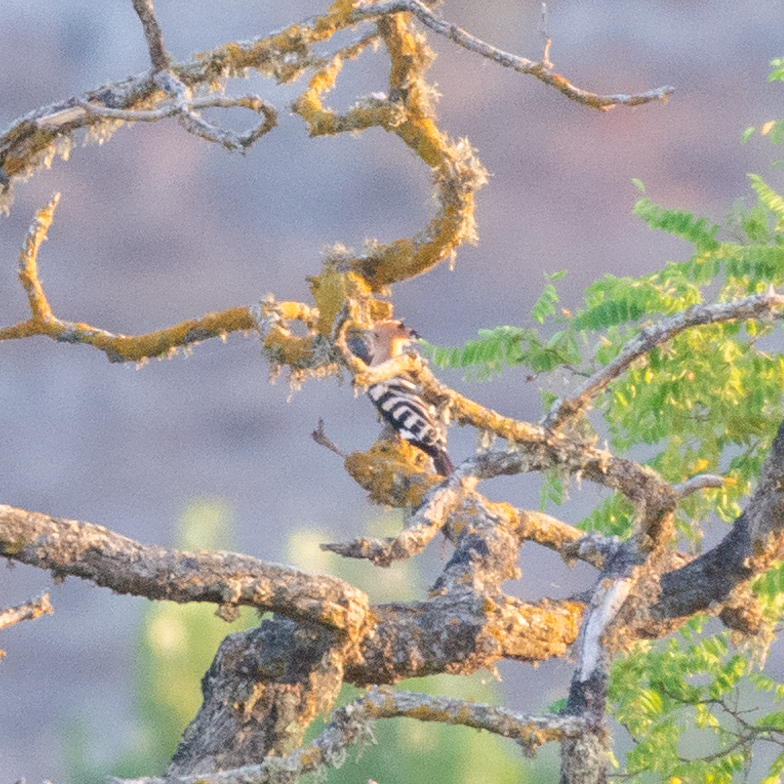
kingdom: Animalia
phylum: Chordata
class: Aves
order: Bucerotiformes
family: Upupidae
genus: Upupa
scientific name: Upupa epops
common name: Eurasian hoopoe
